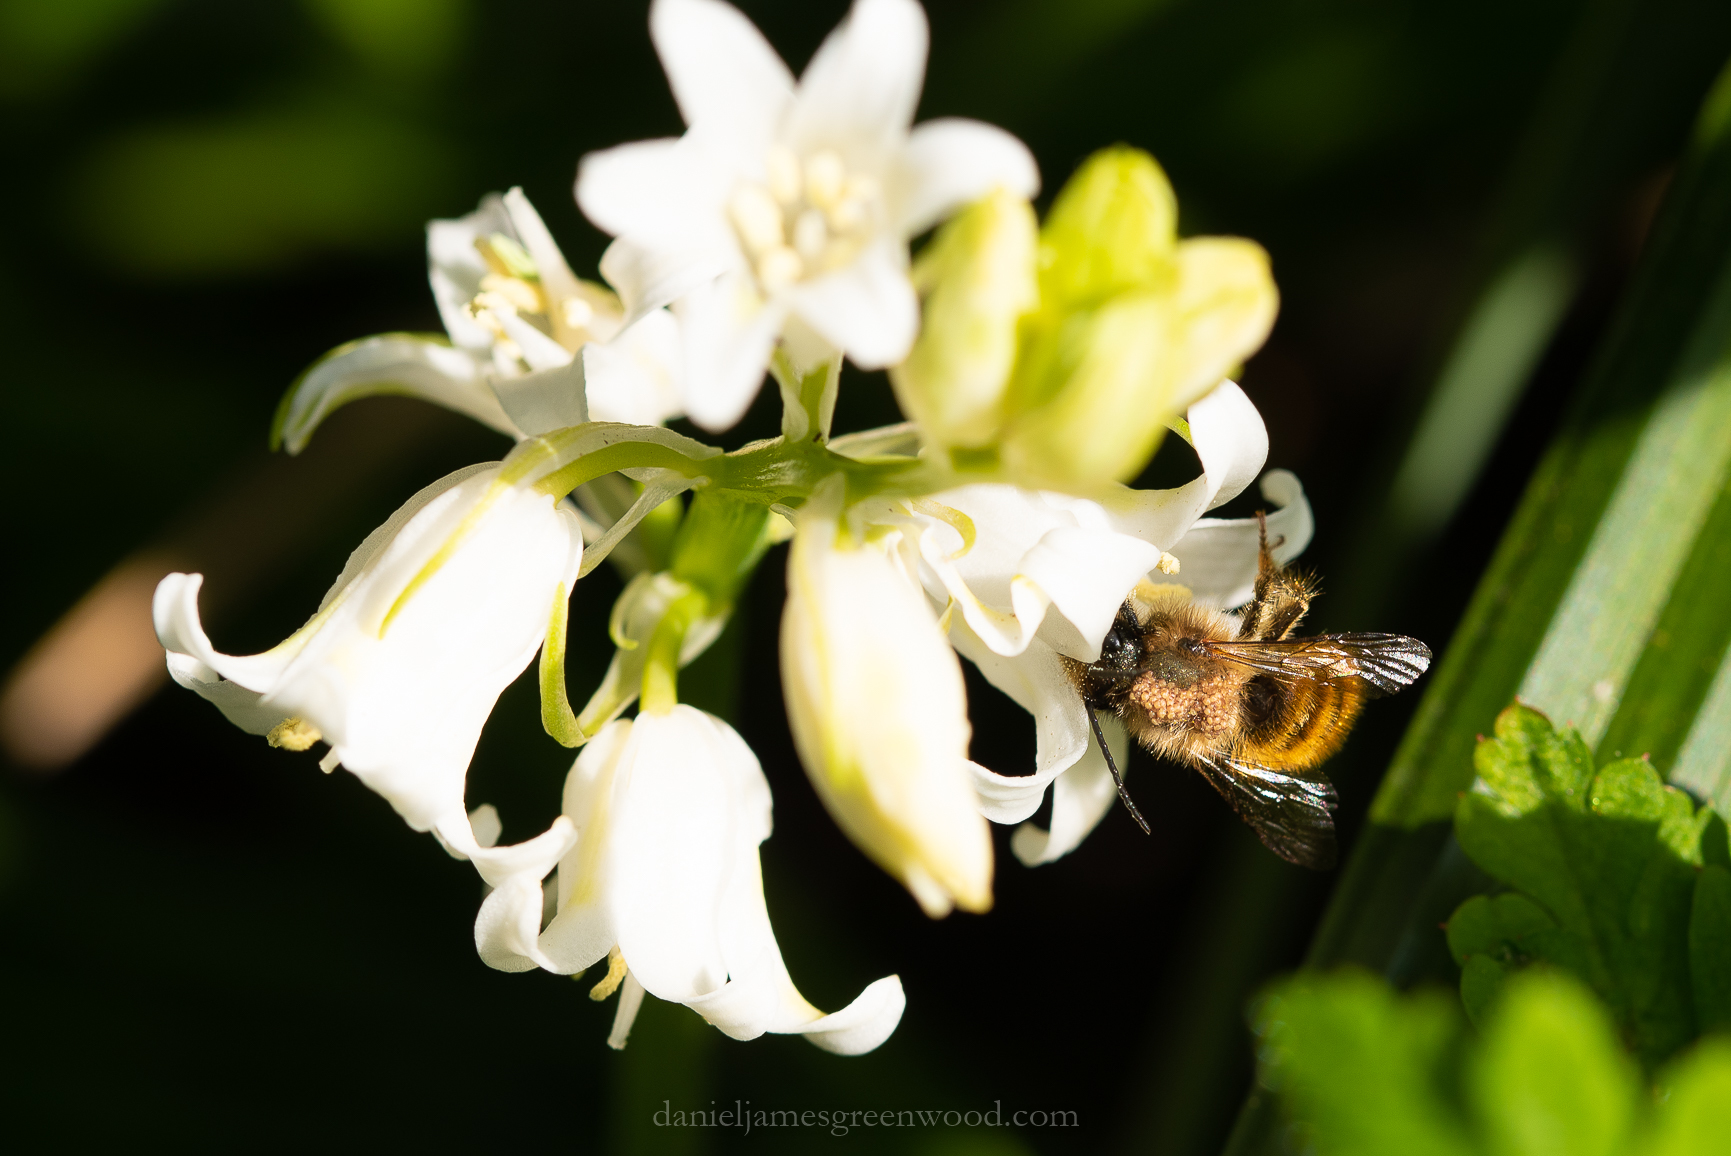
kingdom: Animalia
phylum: Arthropoda
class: Insecta
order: Hymenoptera
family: Megachilidae
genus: Osmia
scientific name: Osmia bicornis
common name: Red mason bee
